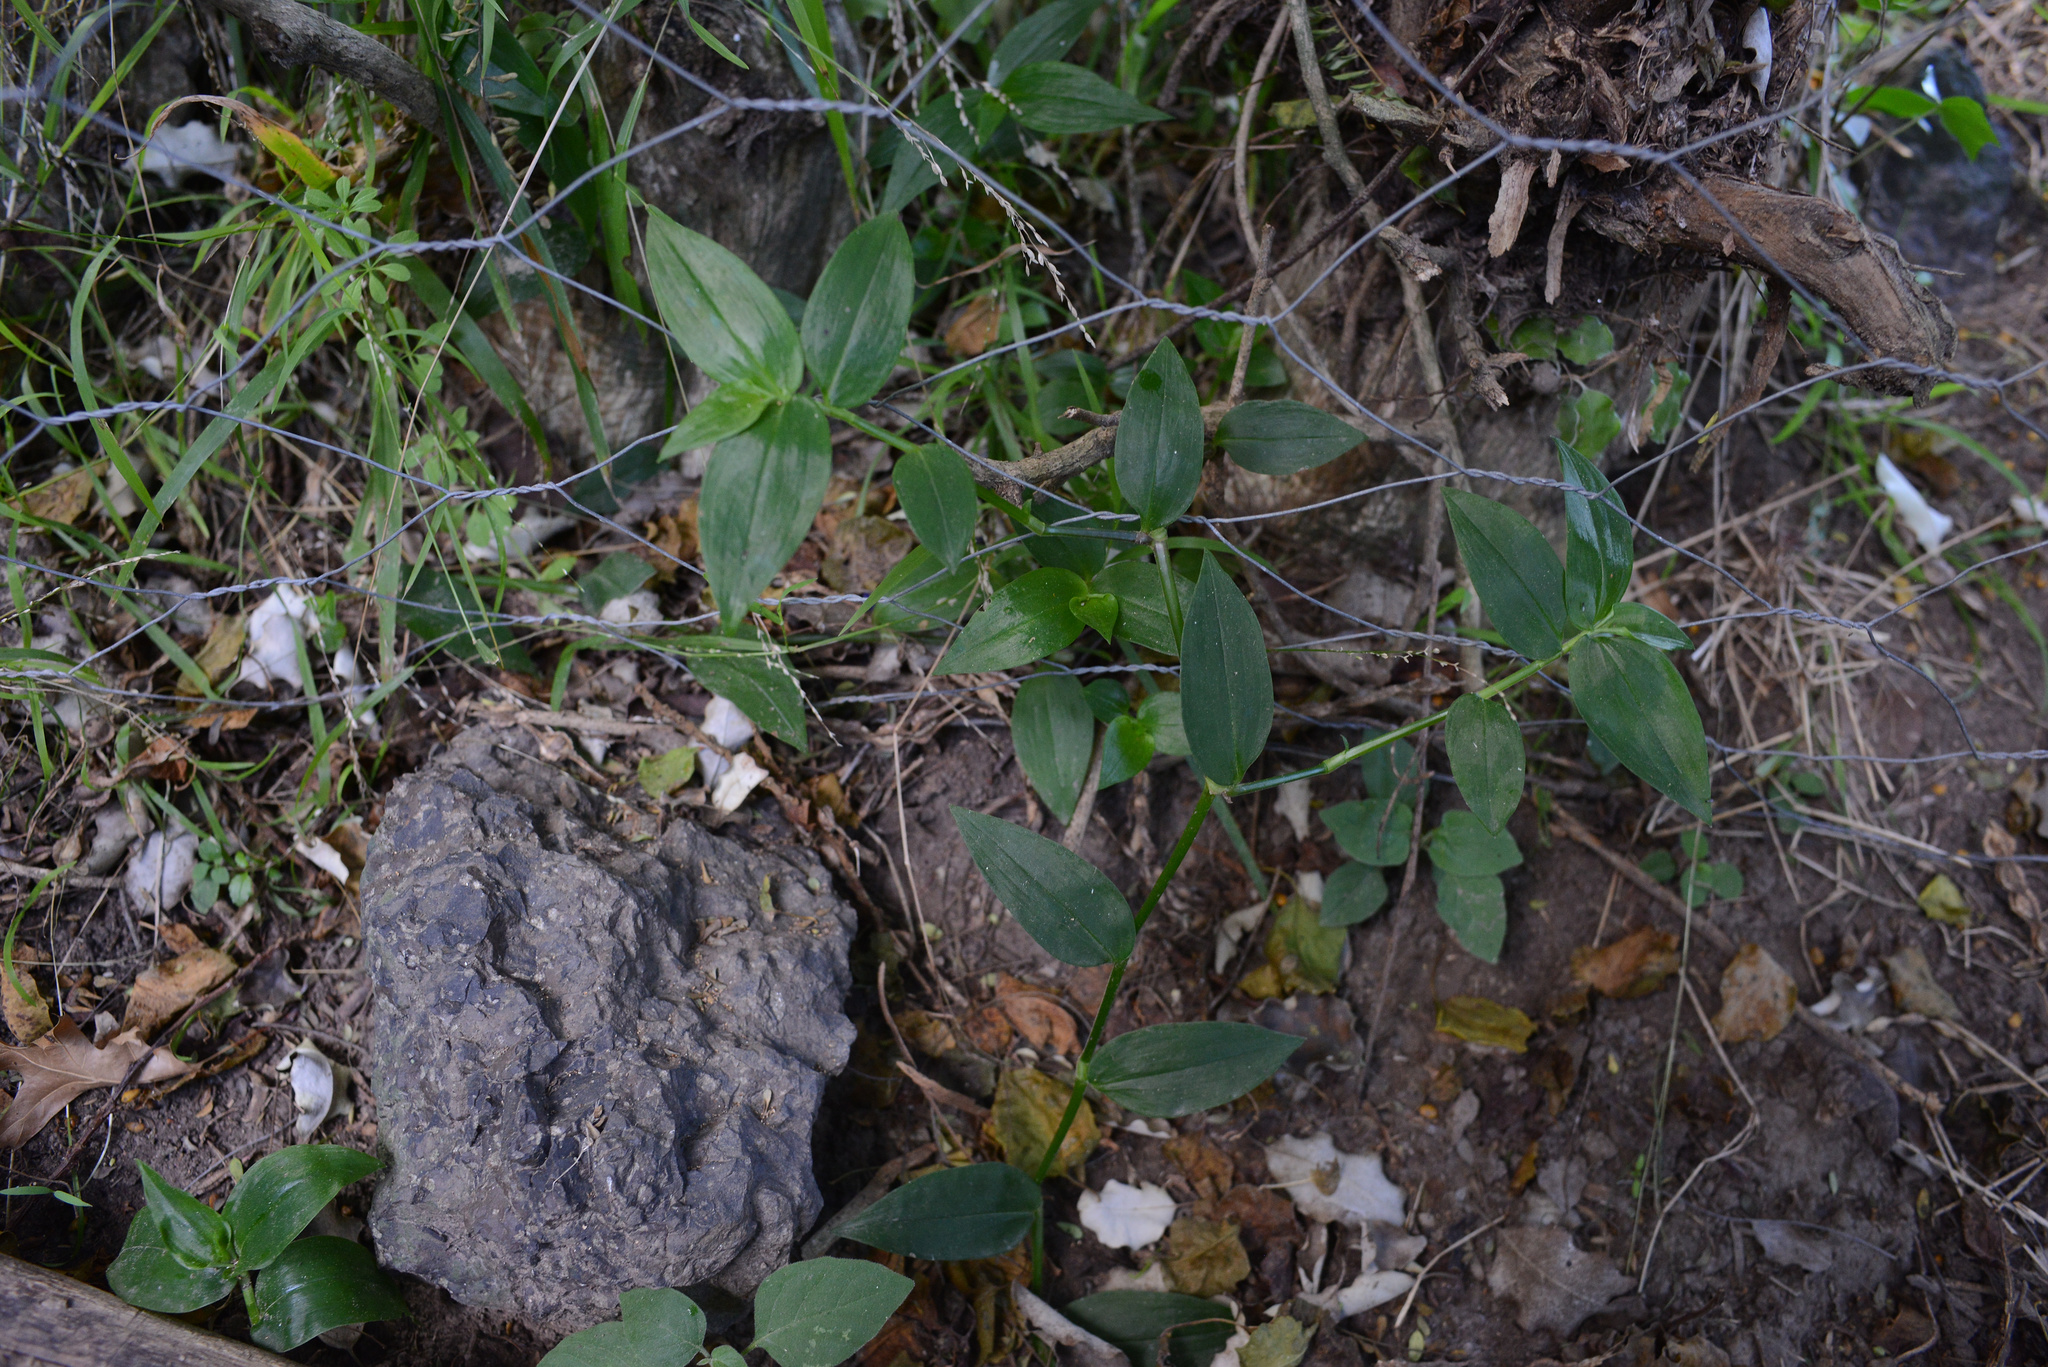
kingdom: Plantae
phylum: Tracheophyta
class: Liliopsida
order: Commelinales
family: Commelinaceae
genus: Tradescantia
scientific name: Tradescantia fluminensis
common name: Wandering-jew
